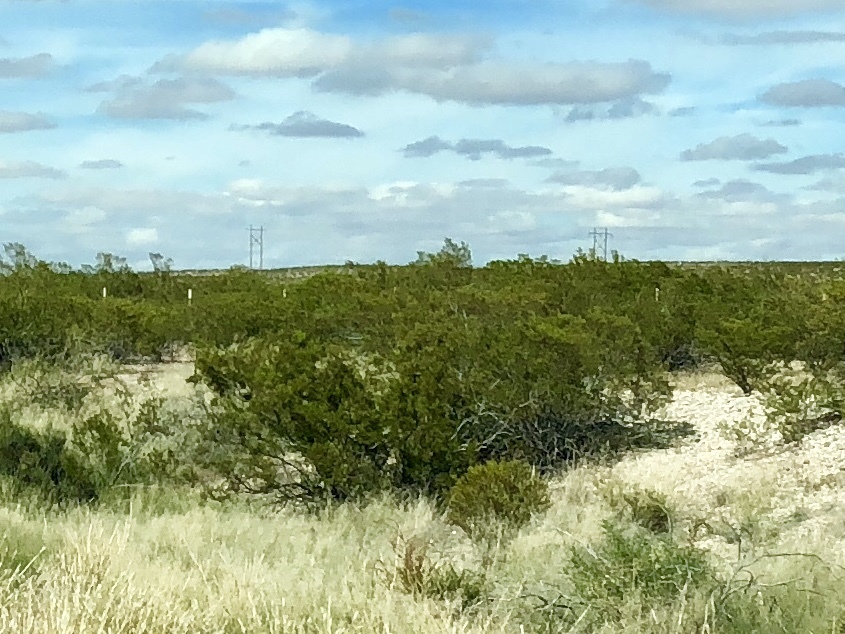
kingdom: Plantae
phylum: Tracheophyta
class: Magnoliopsida
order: Zygophyllales
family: Zygophyllaceae
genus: Larrea
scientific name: Larrea tridentata
